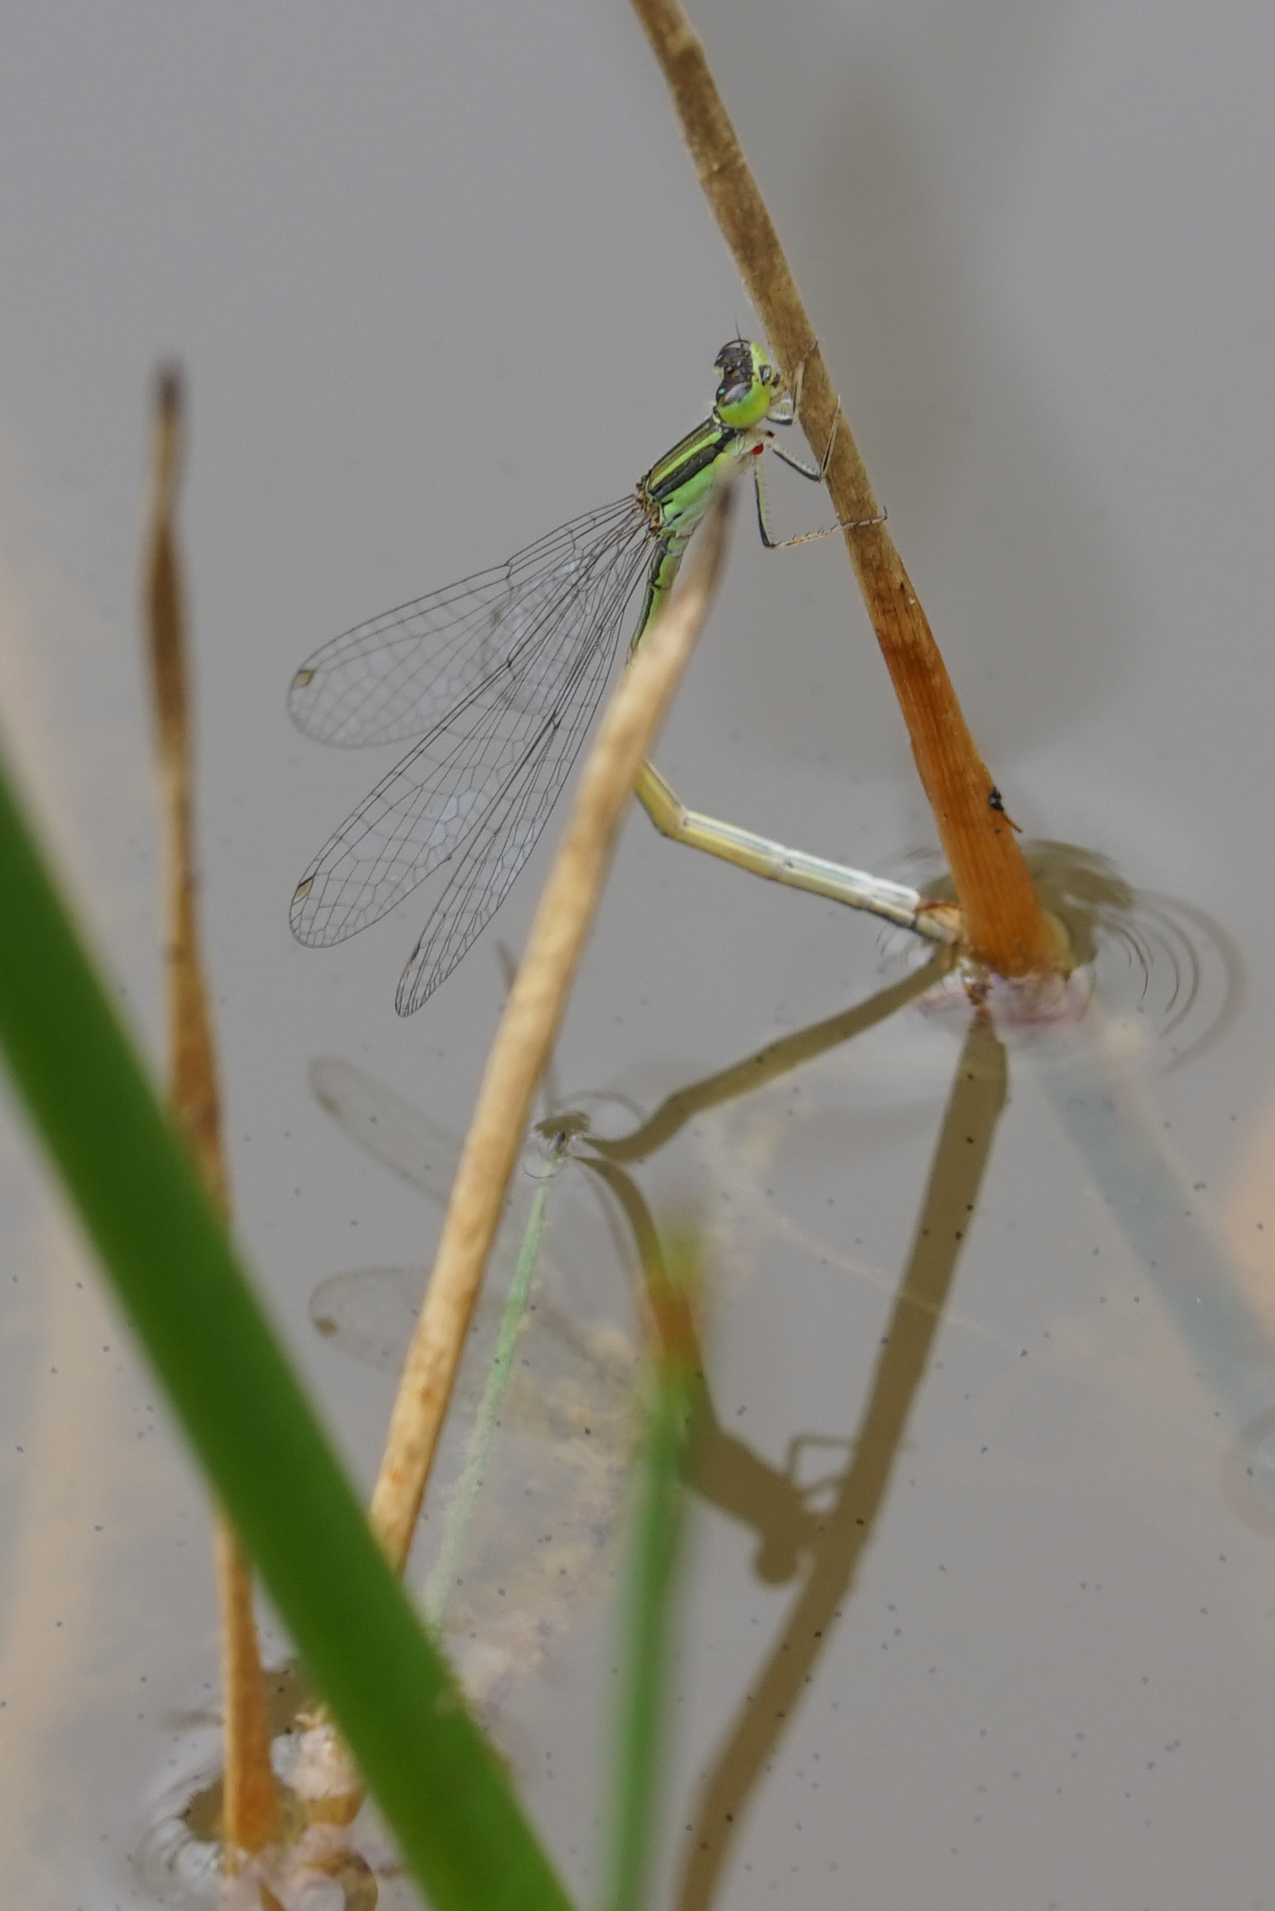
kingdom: Animalia
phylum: Arthropoda
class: Insecta
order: Odonata
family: Coenagrionidae
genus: Ischnura
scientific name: Ischnura aurora
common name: Gossamer damselfly
